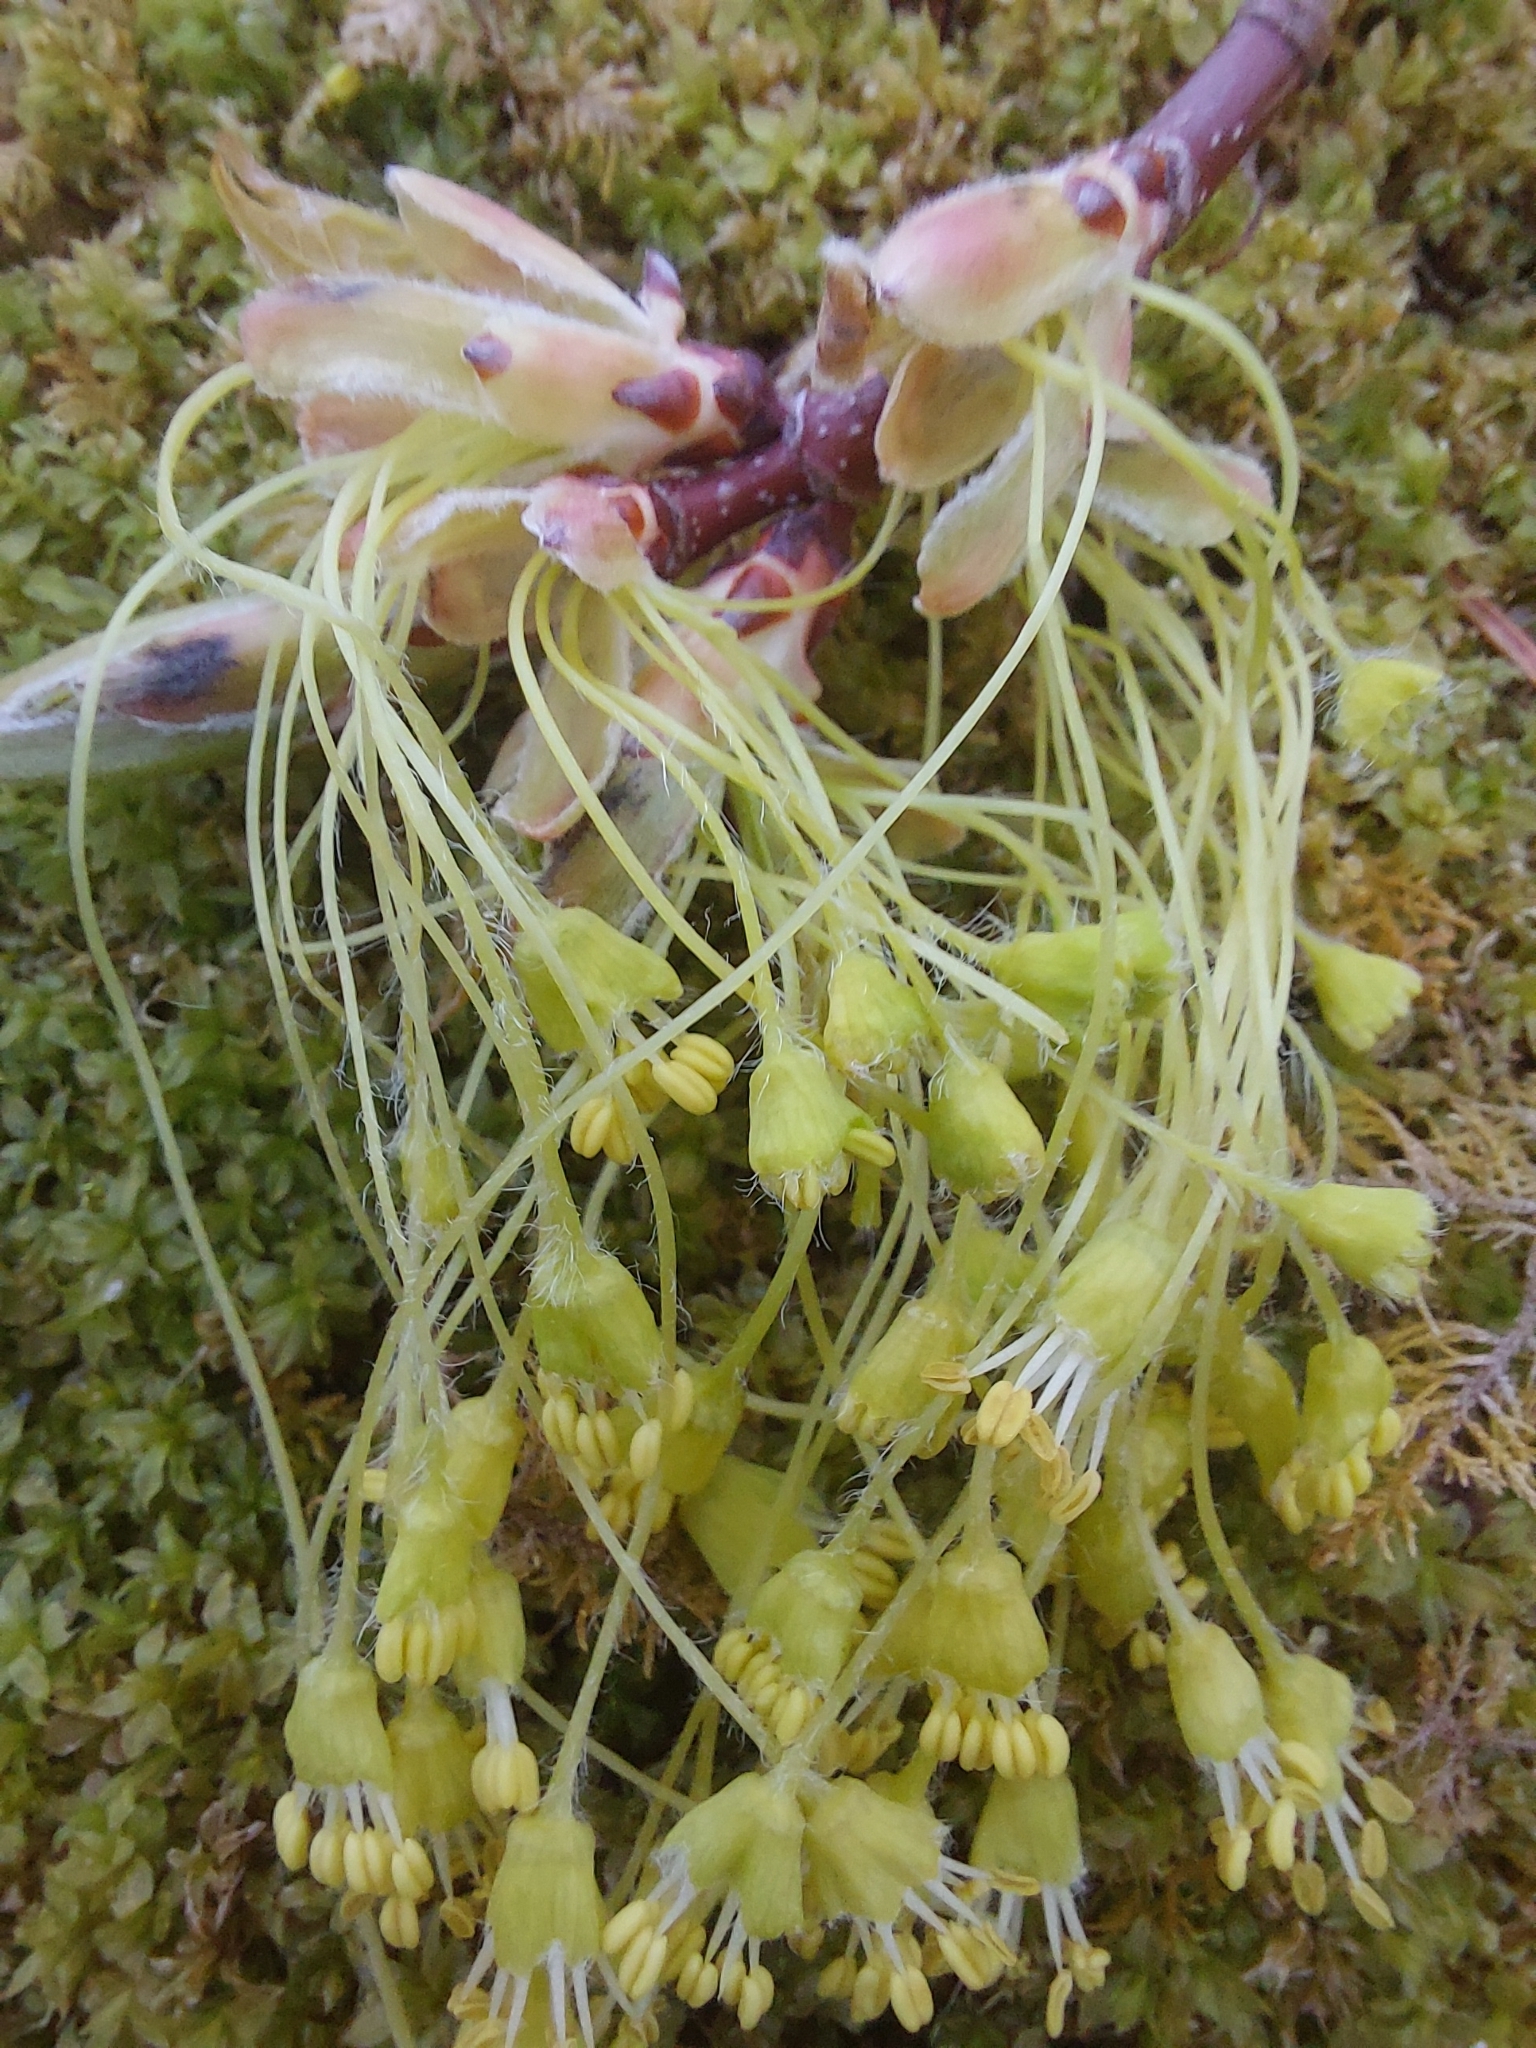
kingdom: Plantae
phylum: Tracheophyta
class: Magnoliopsida
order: Sapindales
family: Sapindaceae
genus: Acer
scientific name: Acer saccharum
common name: Sugar maple
